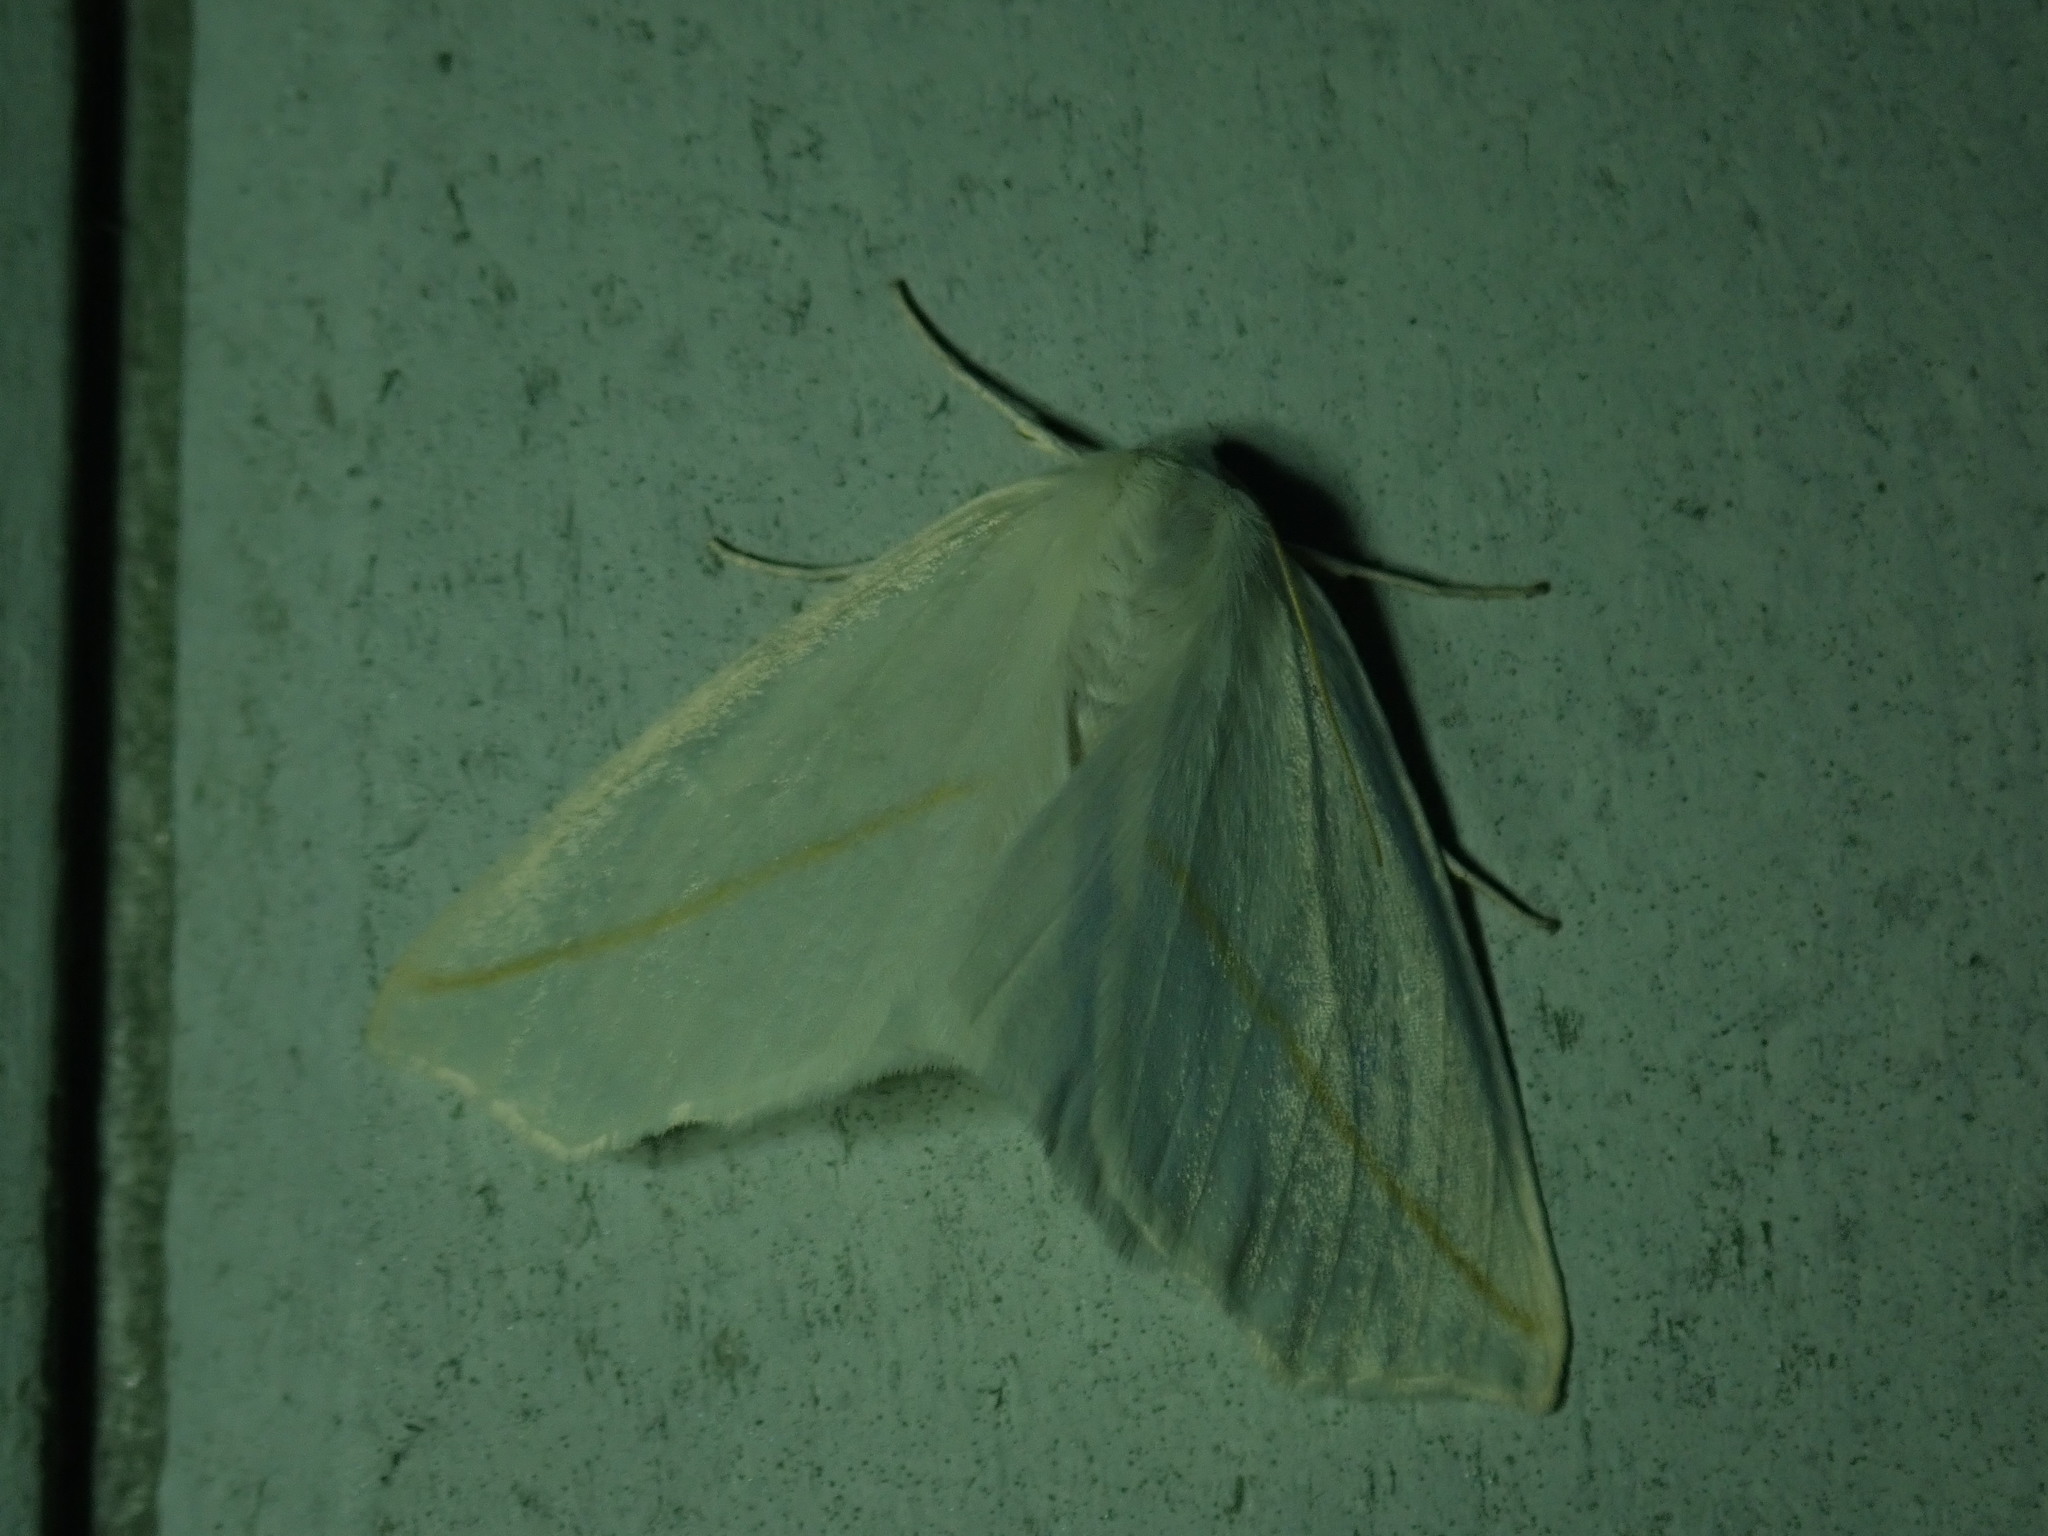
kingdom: Animalia
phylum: Arthropoda
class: Insecta
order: Lepidoptera
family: Geometridae
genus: Tetracis
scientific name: Tetracis cachexiata
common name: White slant-line
